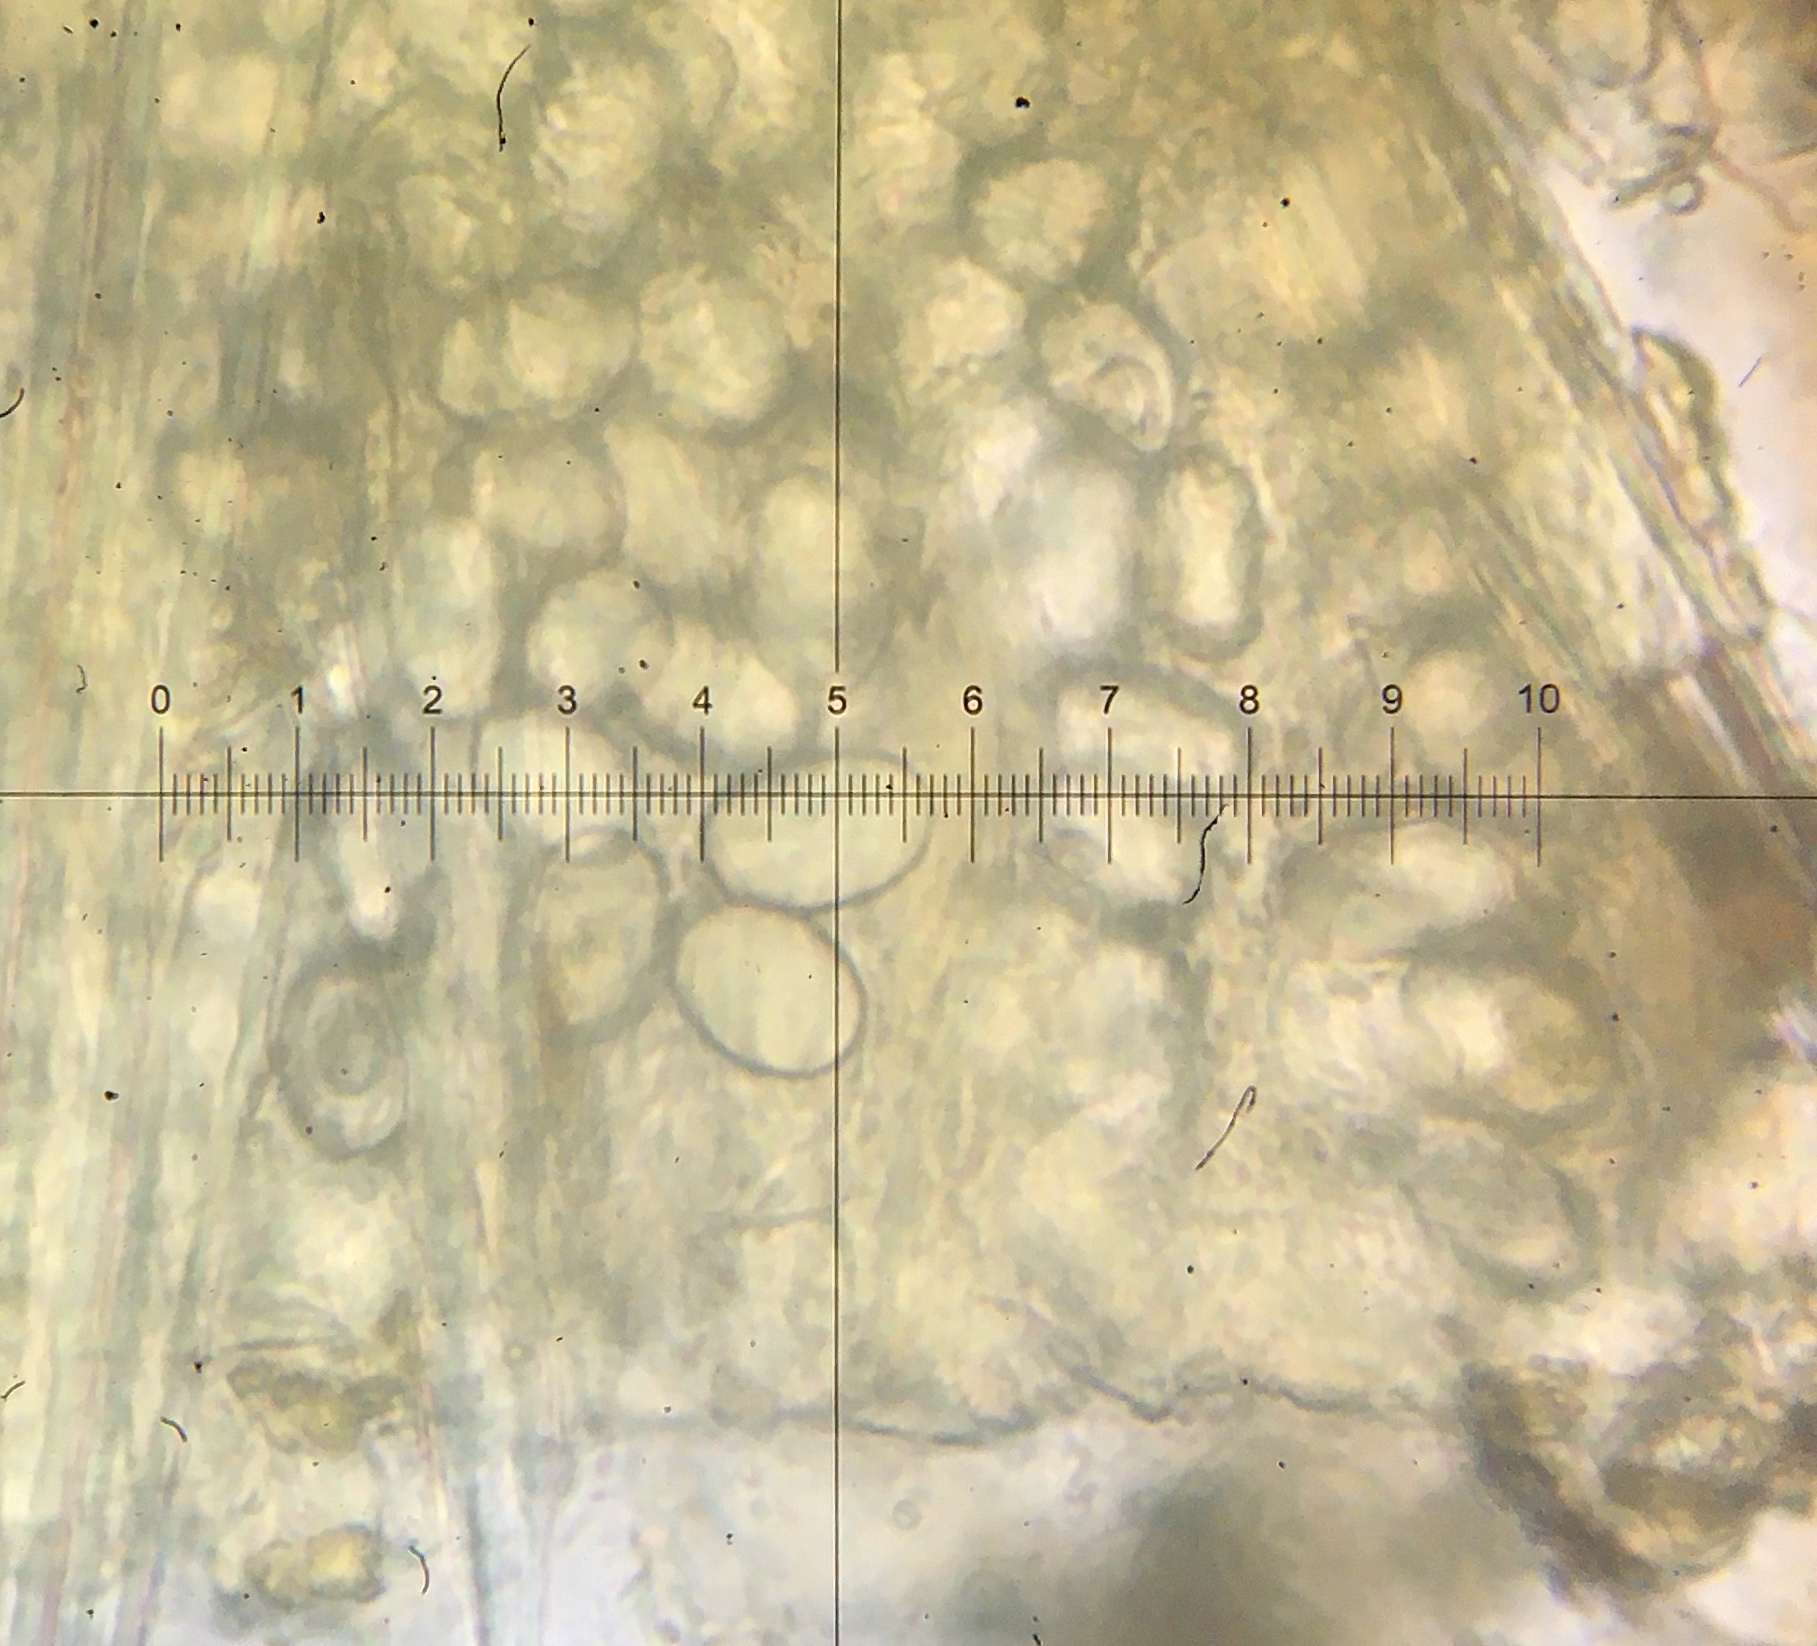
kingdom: Fungi
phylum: Ascomycota
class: Pezizomycetes
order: Pezizales
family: Ascodesmidaceae
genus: Lasiobolus
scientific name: Lasiobolus intermedius
